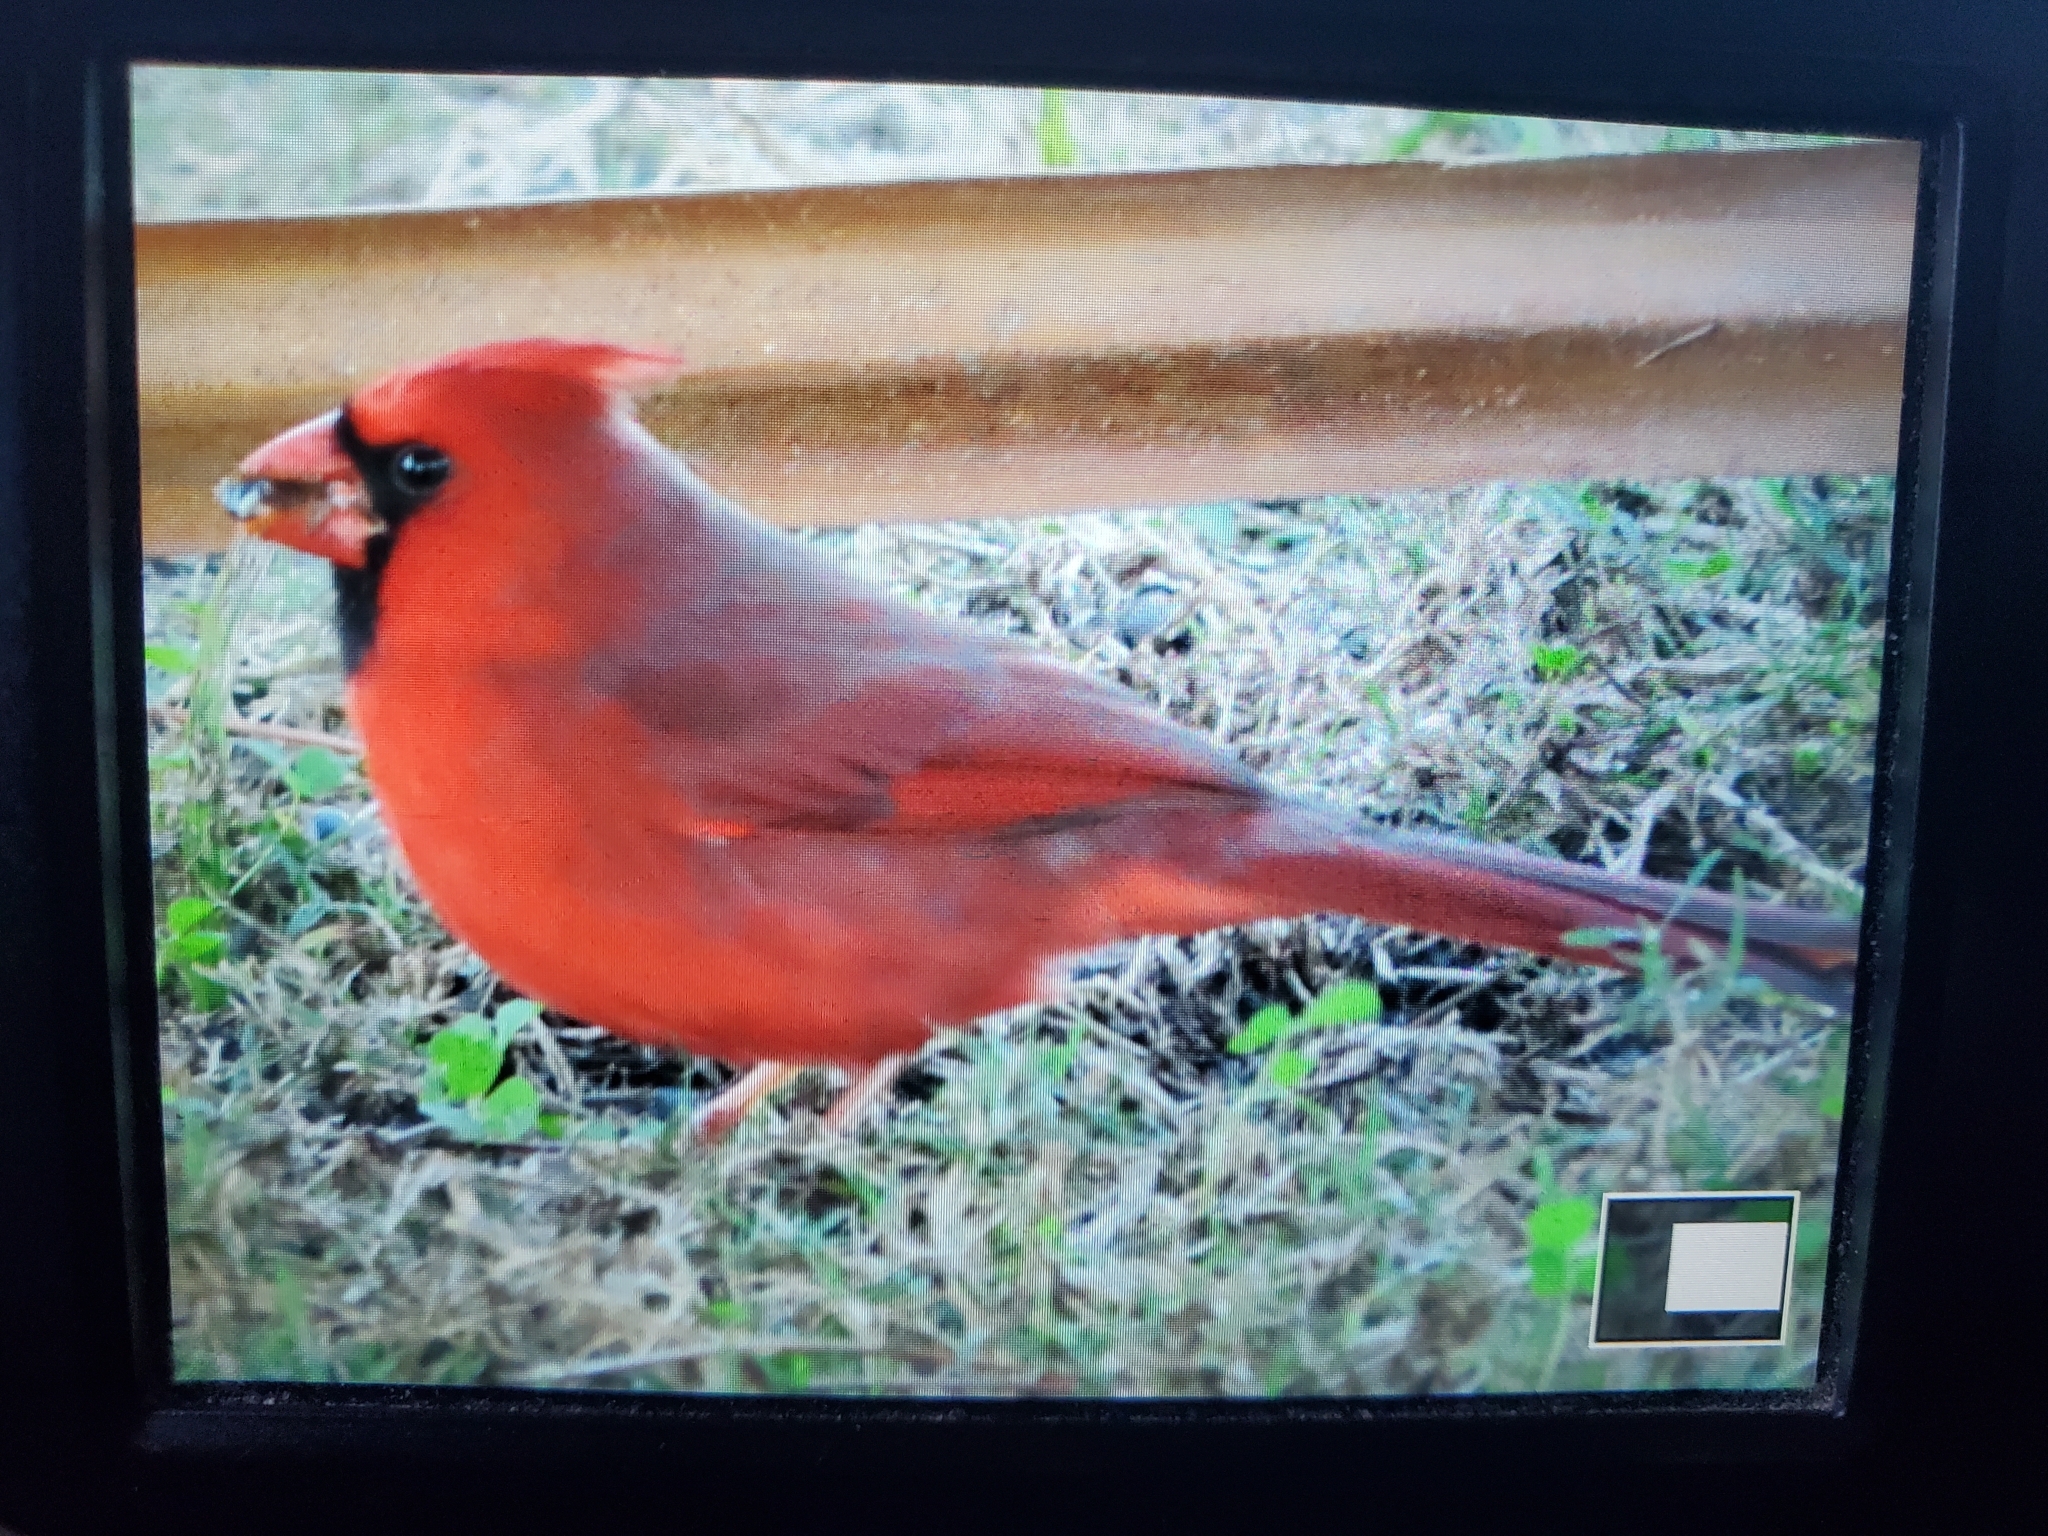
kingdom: Animalia
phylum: Chordata
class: Aves
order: Passeriformes
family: Cardinalidae
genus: Cardinalis
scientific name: Cardinalis cardinalis
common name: Northern cardinal
